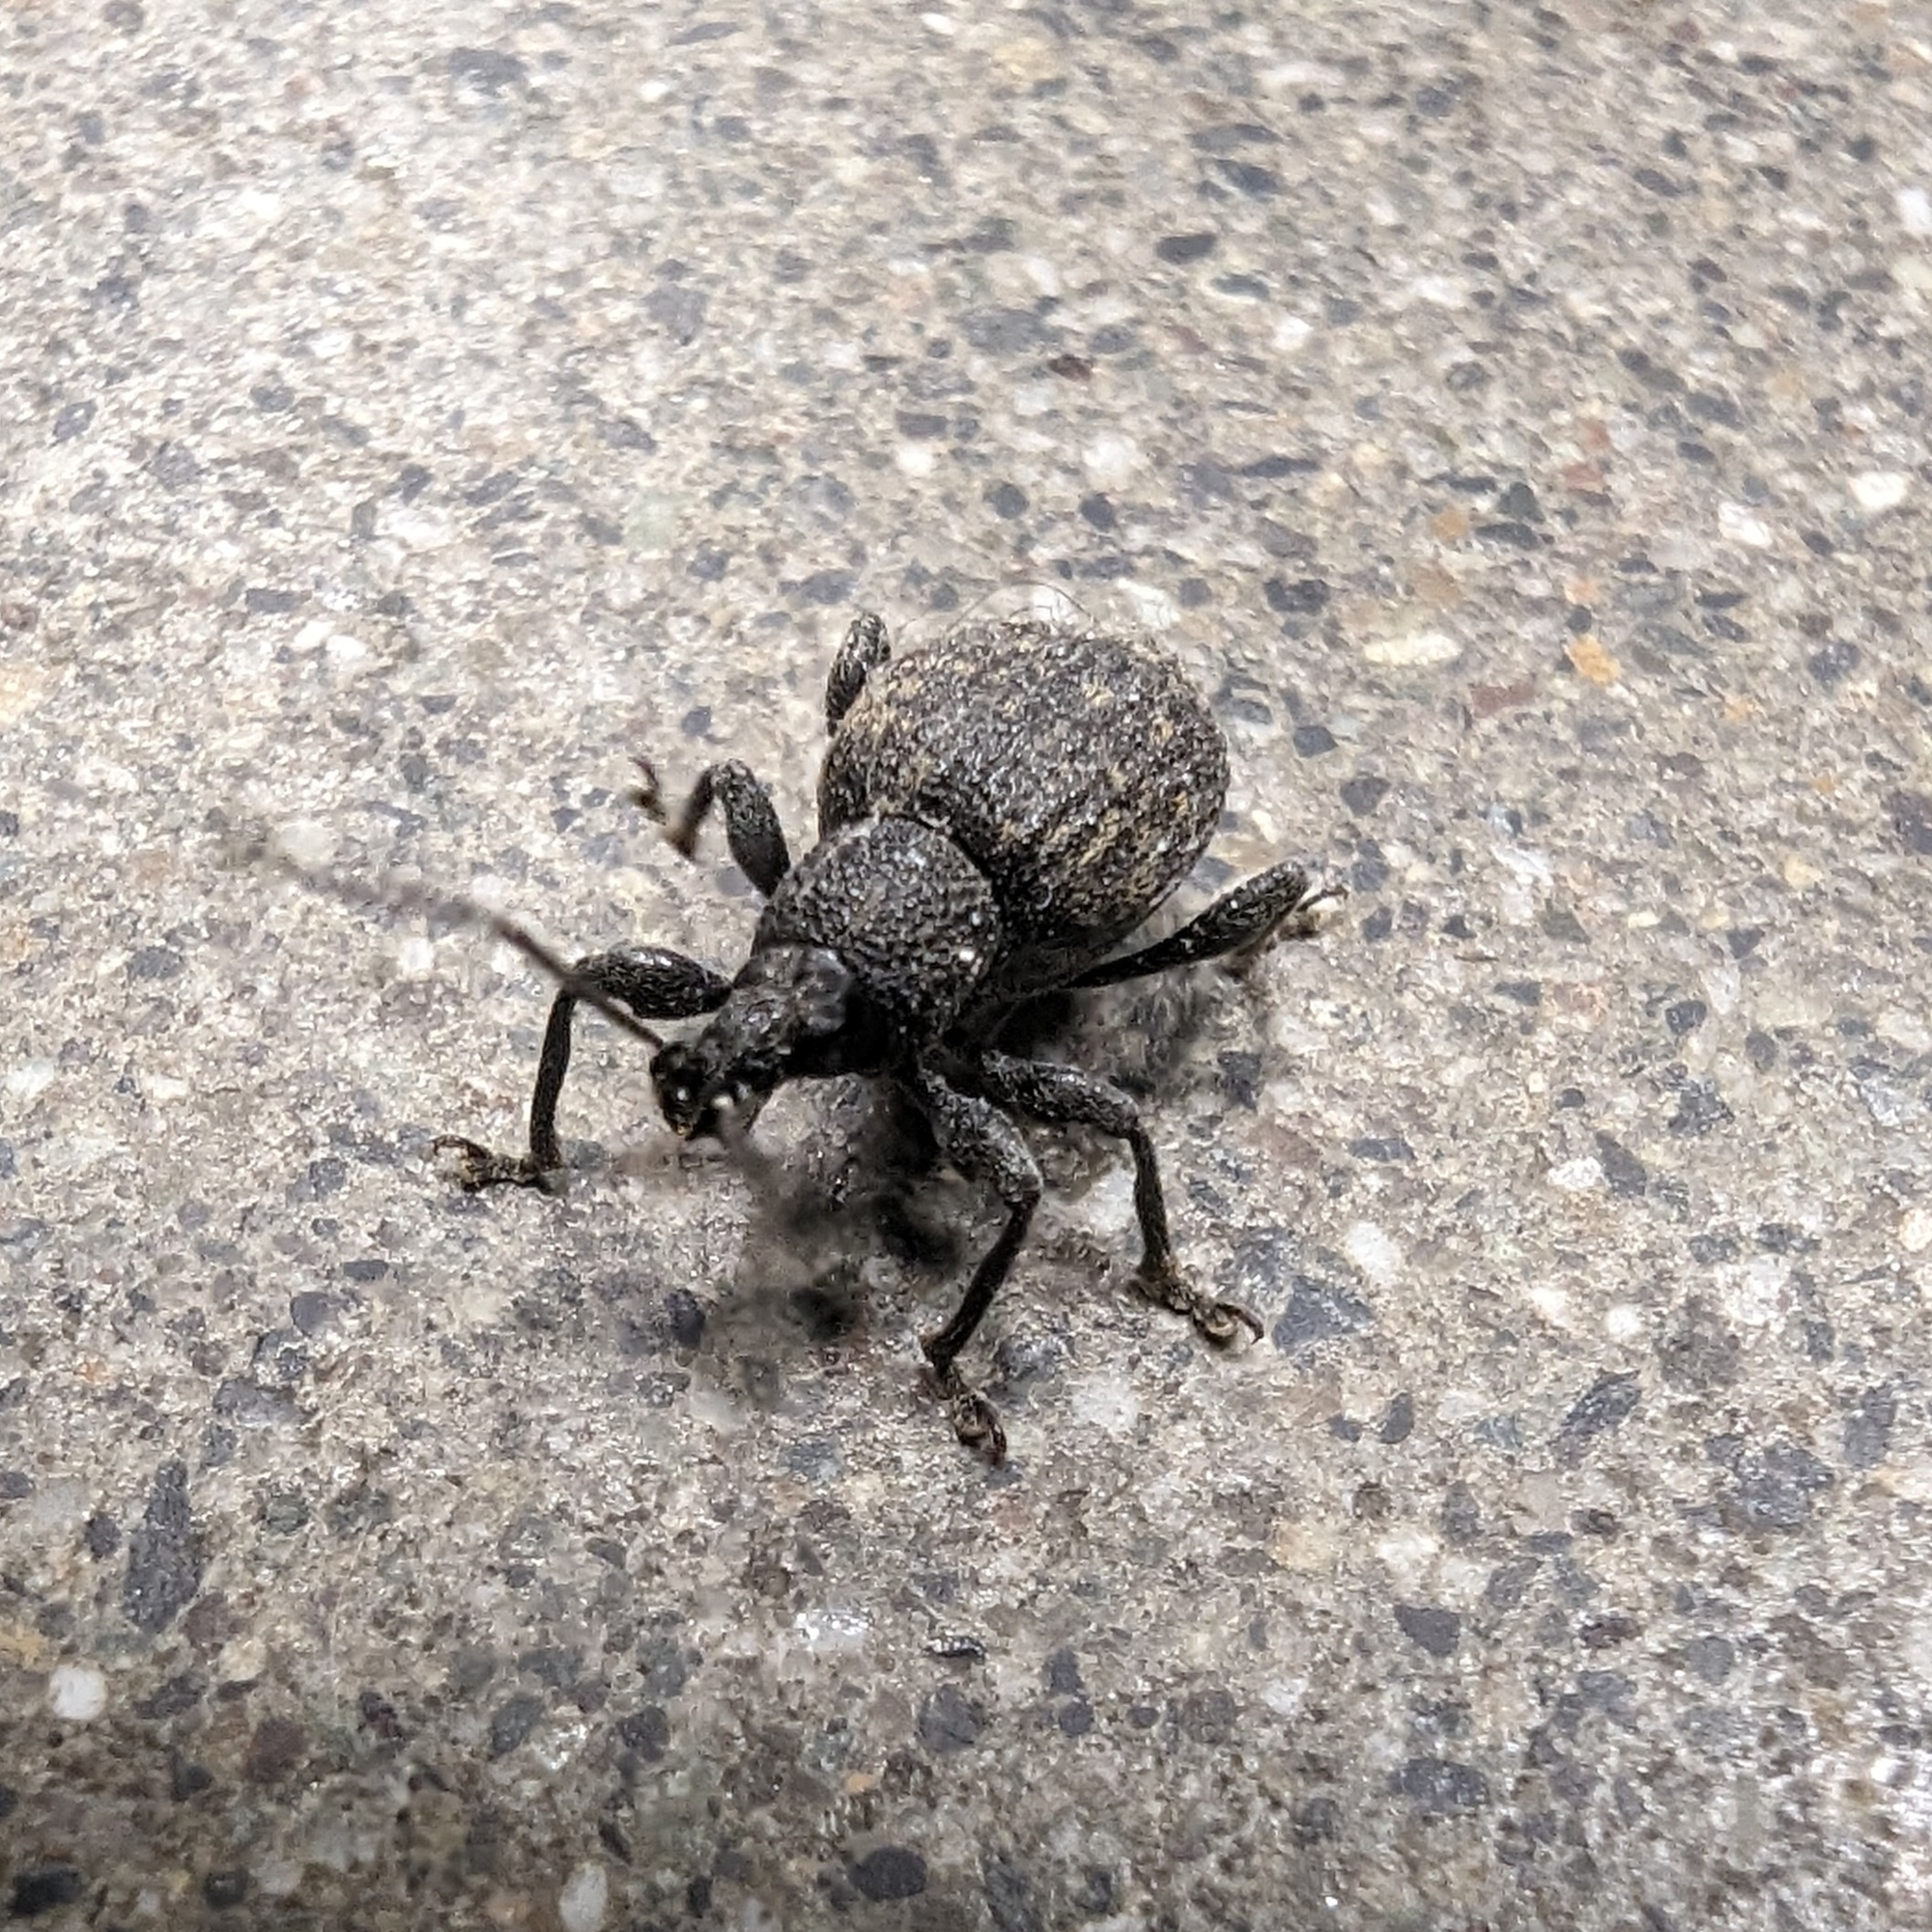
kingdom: Animalia
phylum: Arthropoda
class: Insecta
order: Coleoptera
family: Curculionidae
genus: Otiorhynchus
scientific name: Otiorhynchus sulcatus
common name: Black vine weevil
